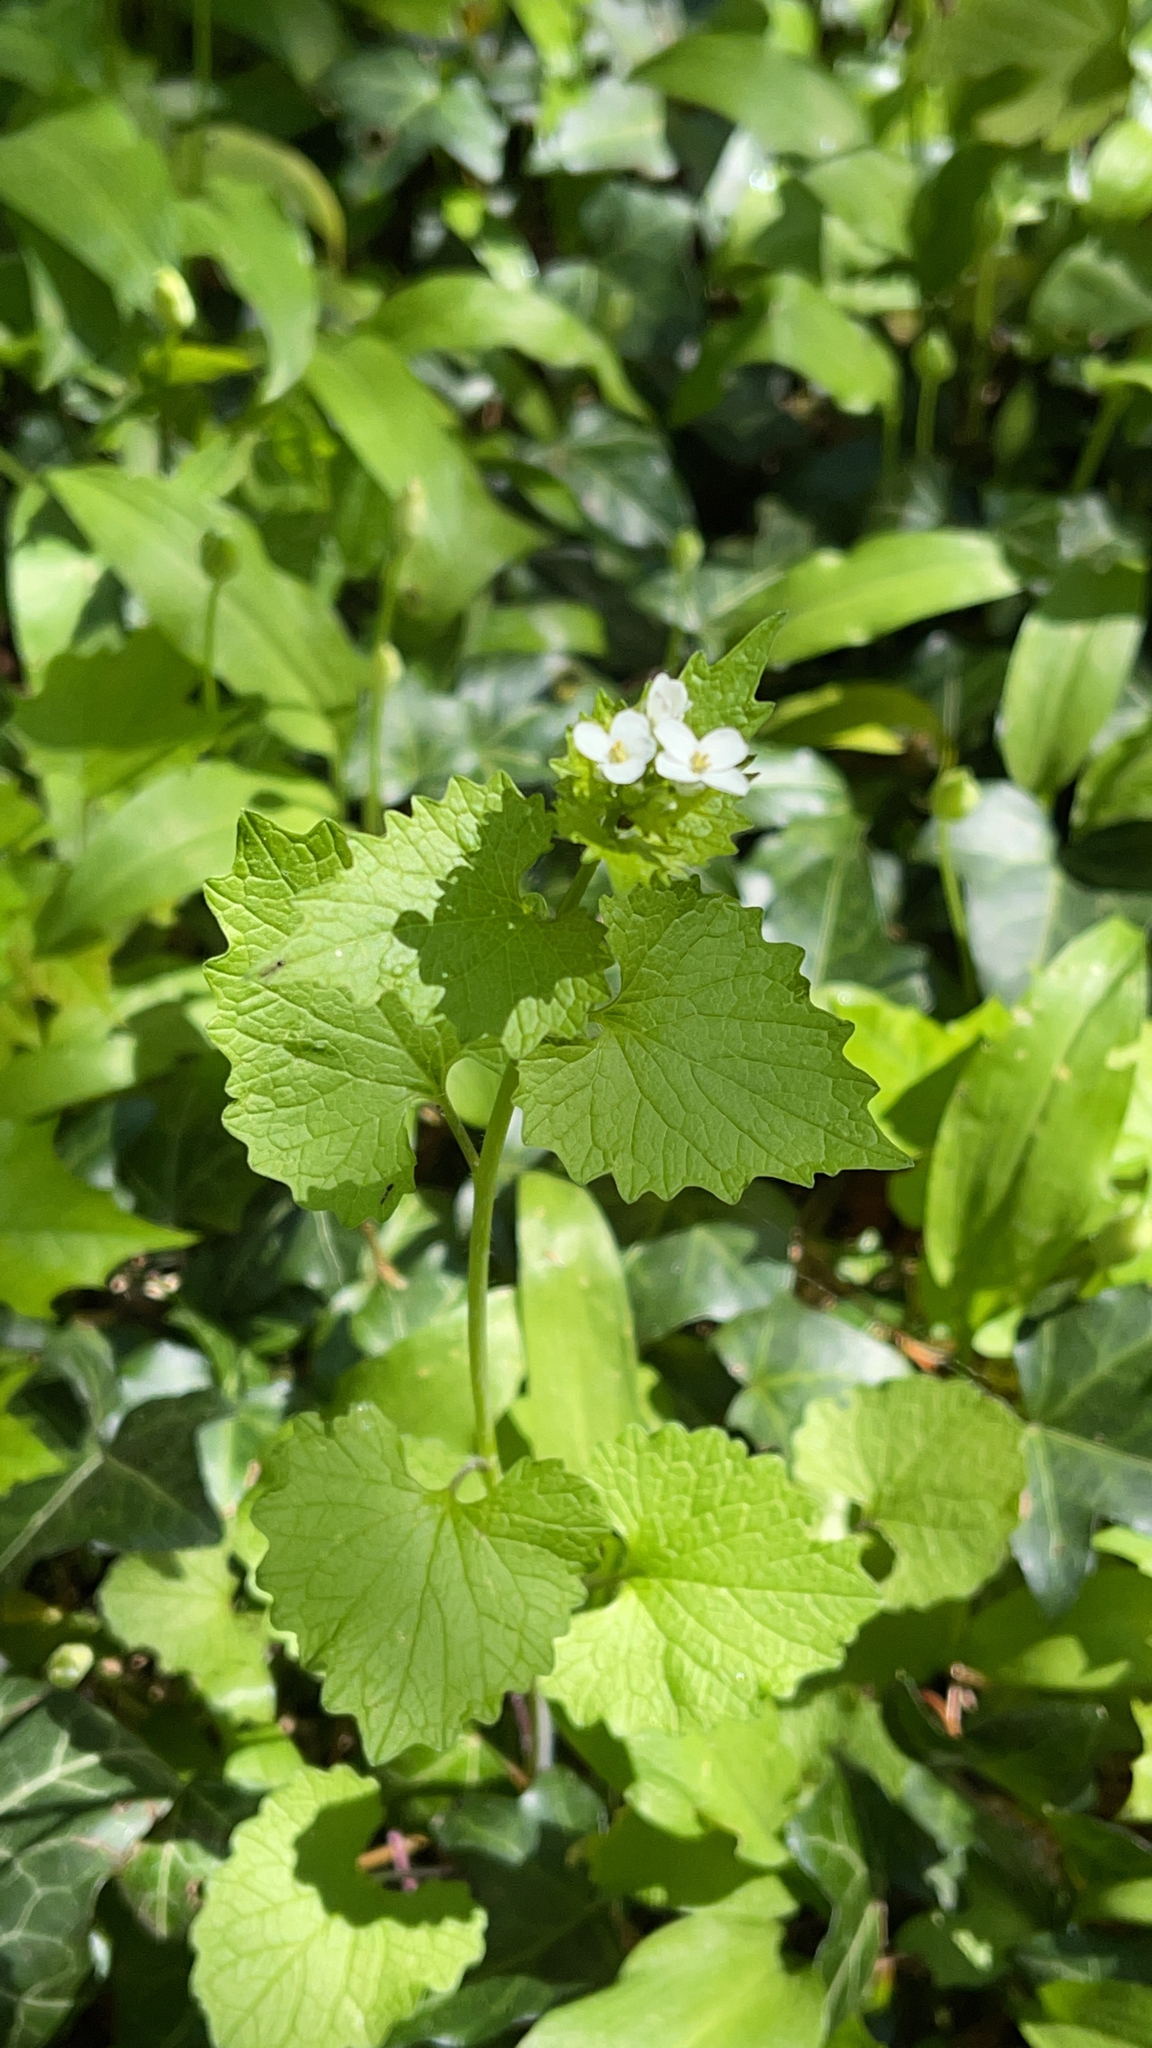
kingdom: Plantae
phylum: Tracheophyta
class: Magnoliopsida
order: Brassicales
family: Brassicaceae
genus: Alliaria
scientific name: Alliaria petiolata
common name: Garlic mustard
